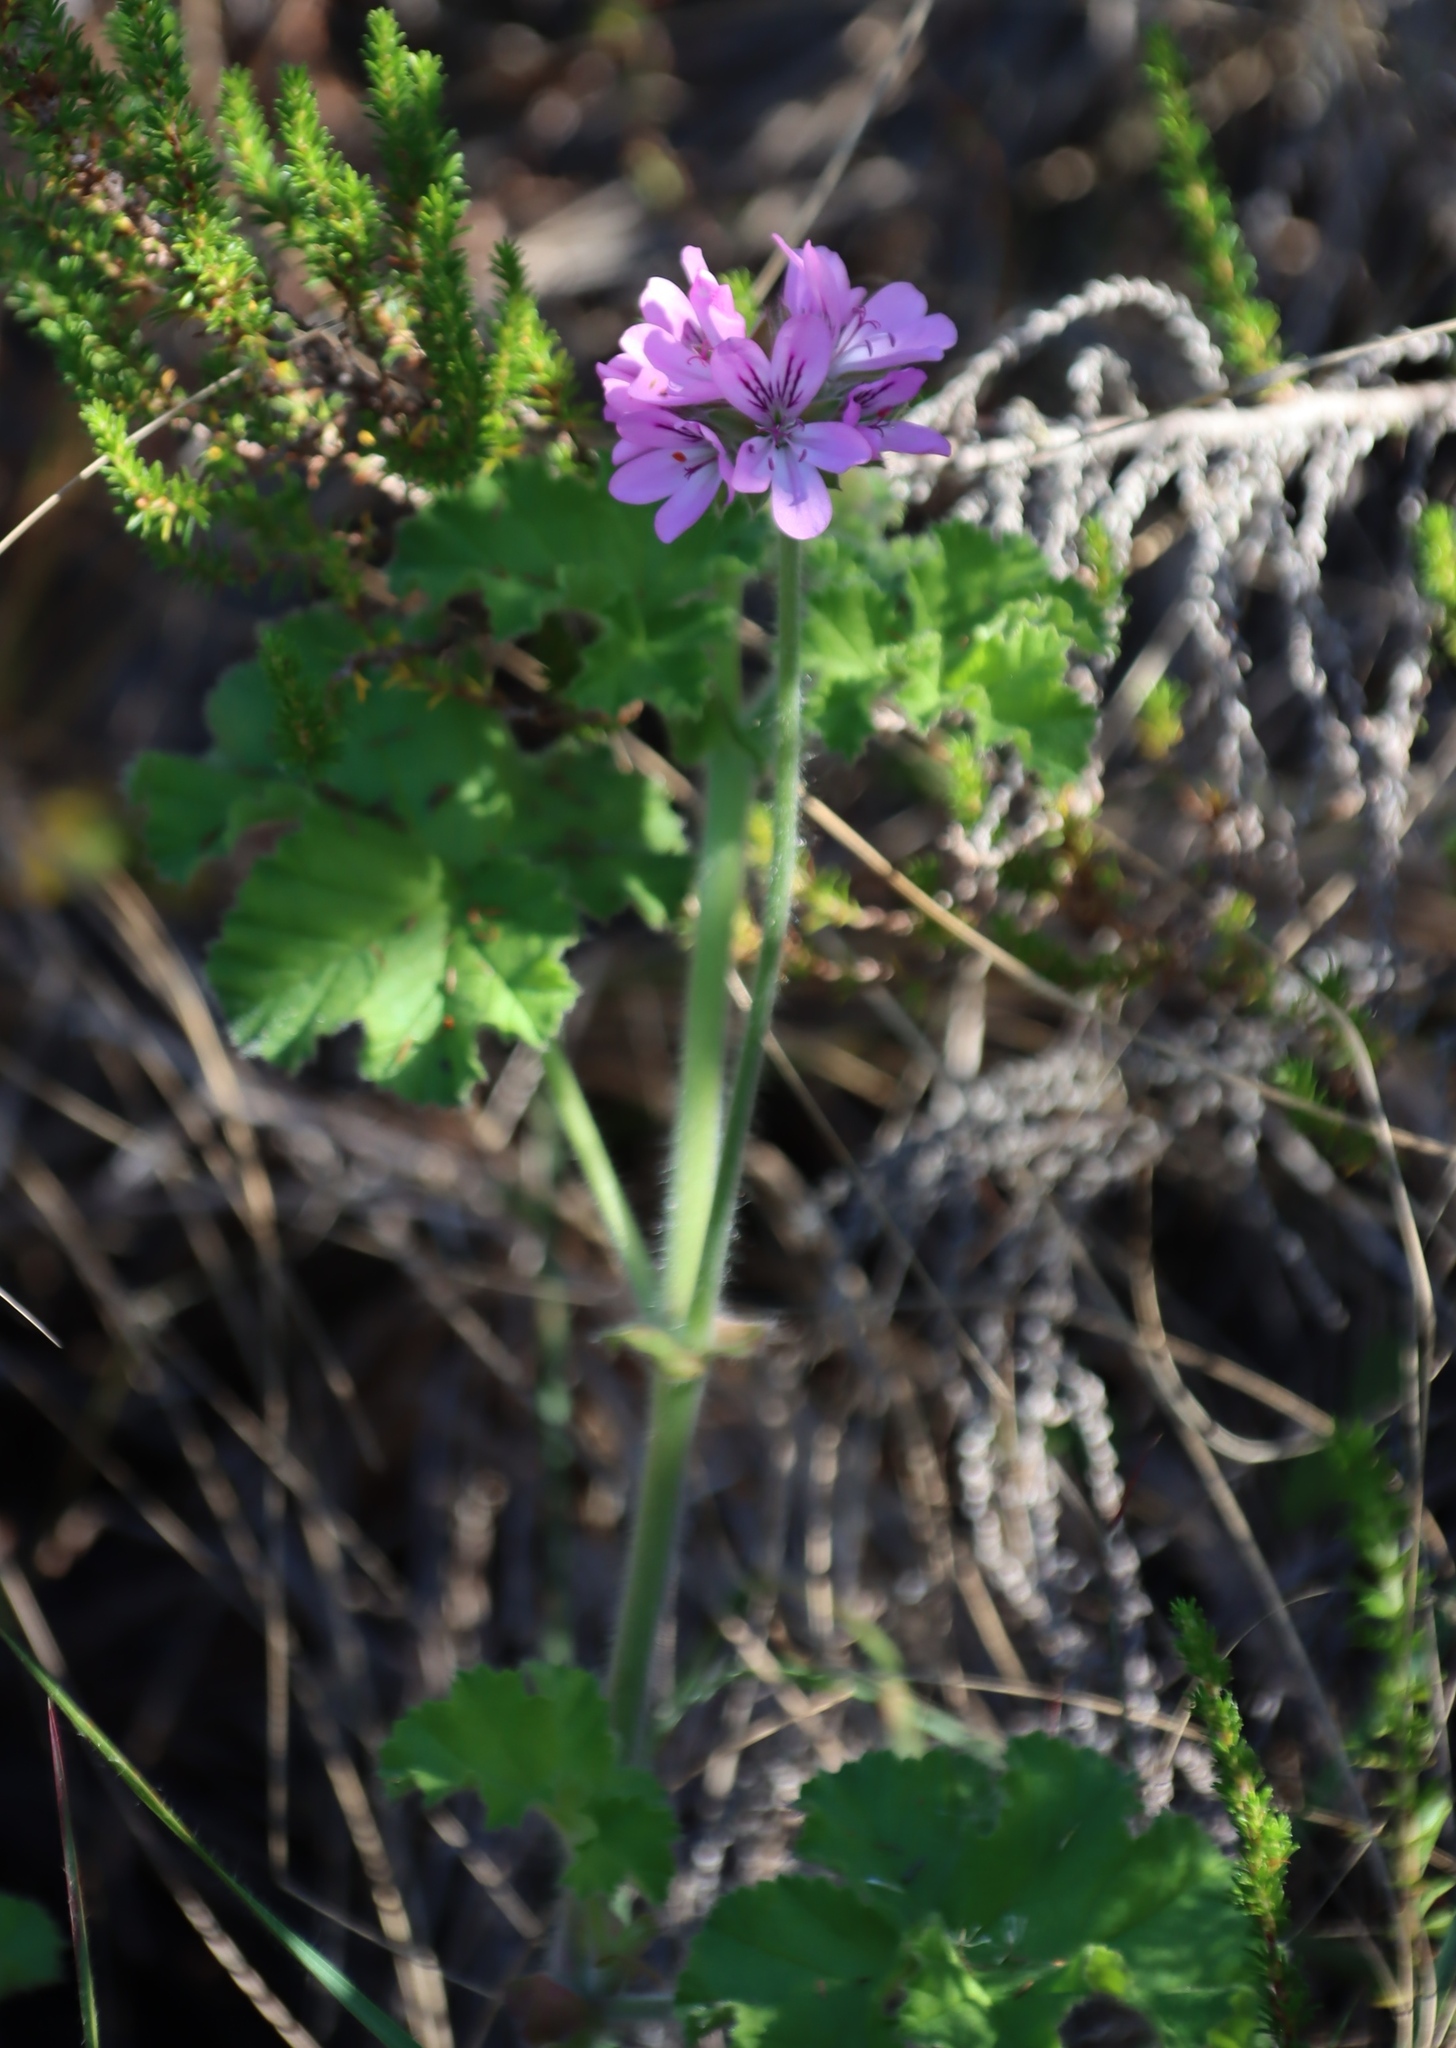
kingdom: Plantae
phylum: Tracheophyta
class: Magnoliopsida
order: Geraniales
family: Geraniaceae
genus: Pelargonium
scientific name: Pelargonium capitatum
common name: Rose scented geranium
